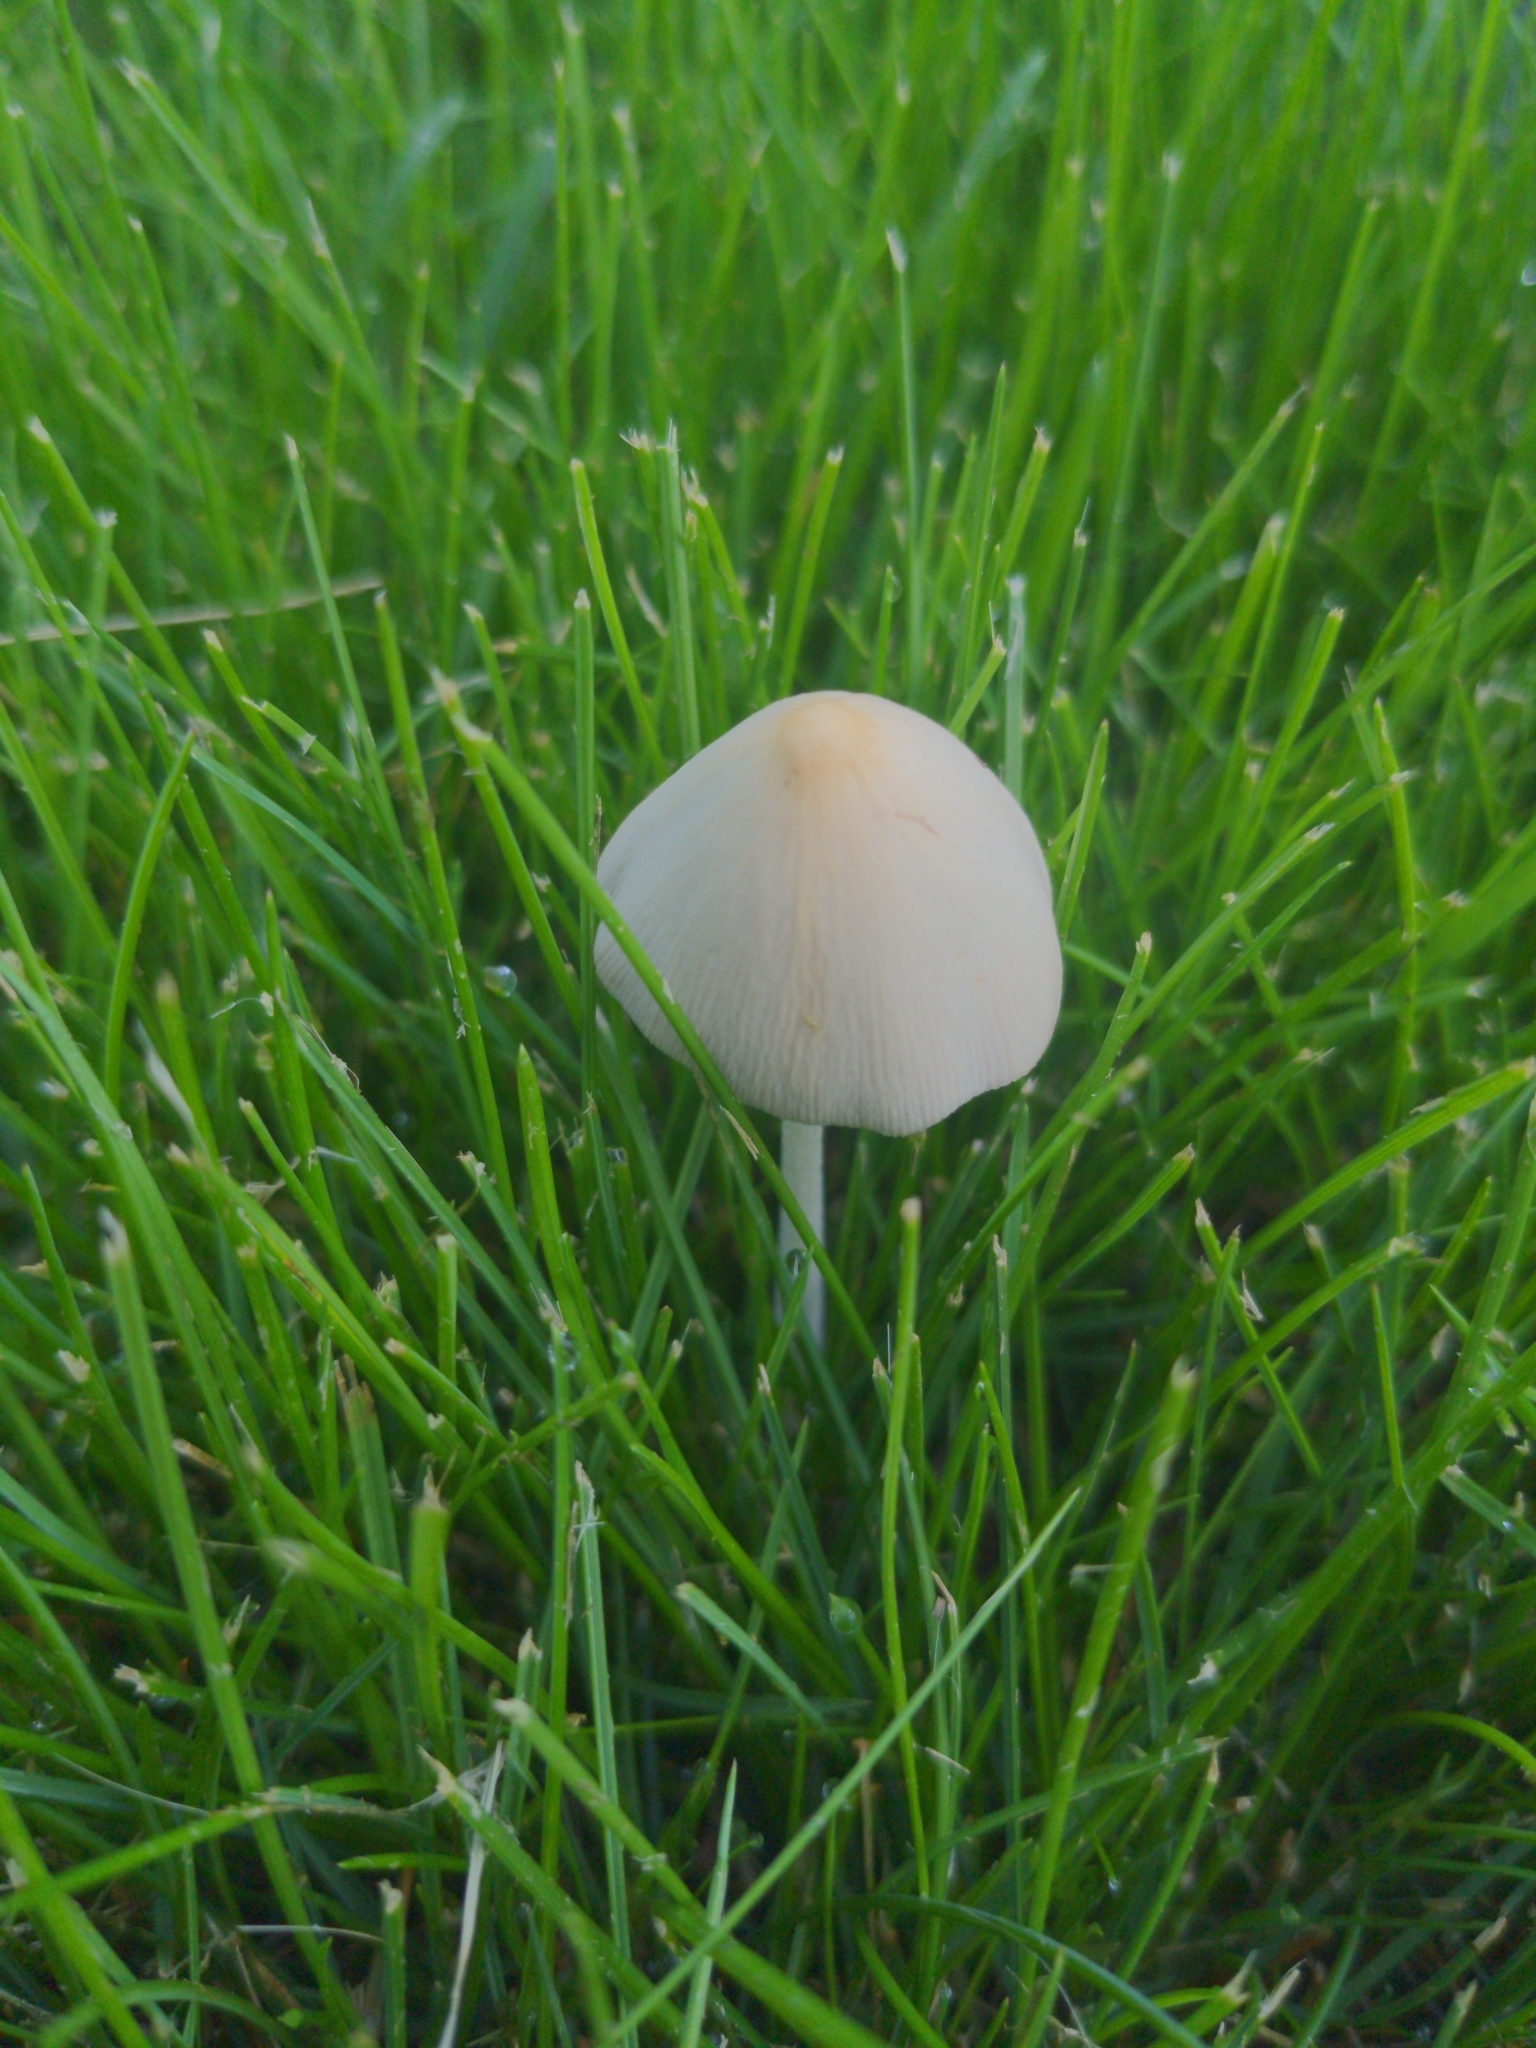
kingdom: Fungi
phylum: Basidiomycota
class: Agaricomycetes
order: Agaricales
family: Bolbitiaceae
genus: Conocybe
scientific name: Conocybe apala
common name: Milky conecap
